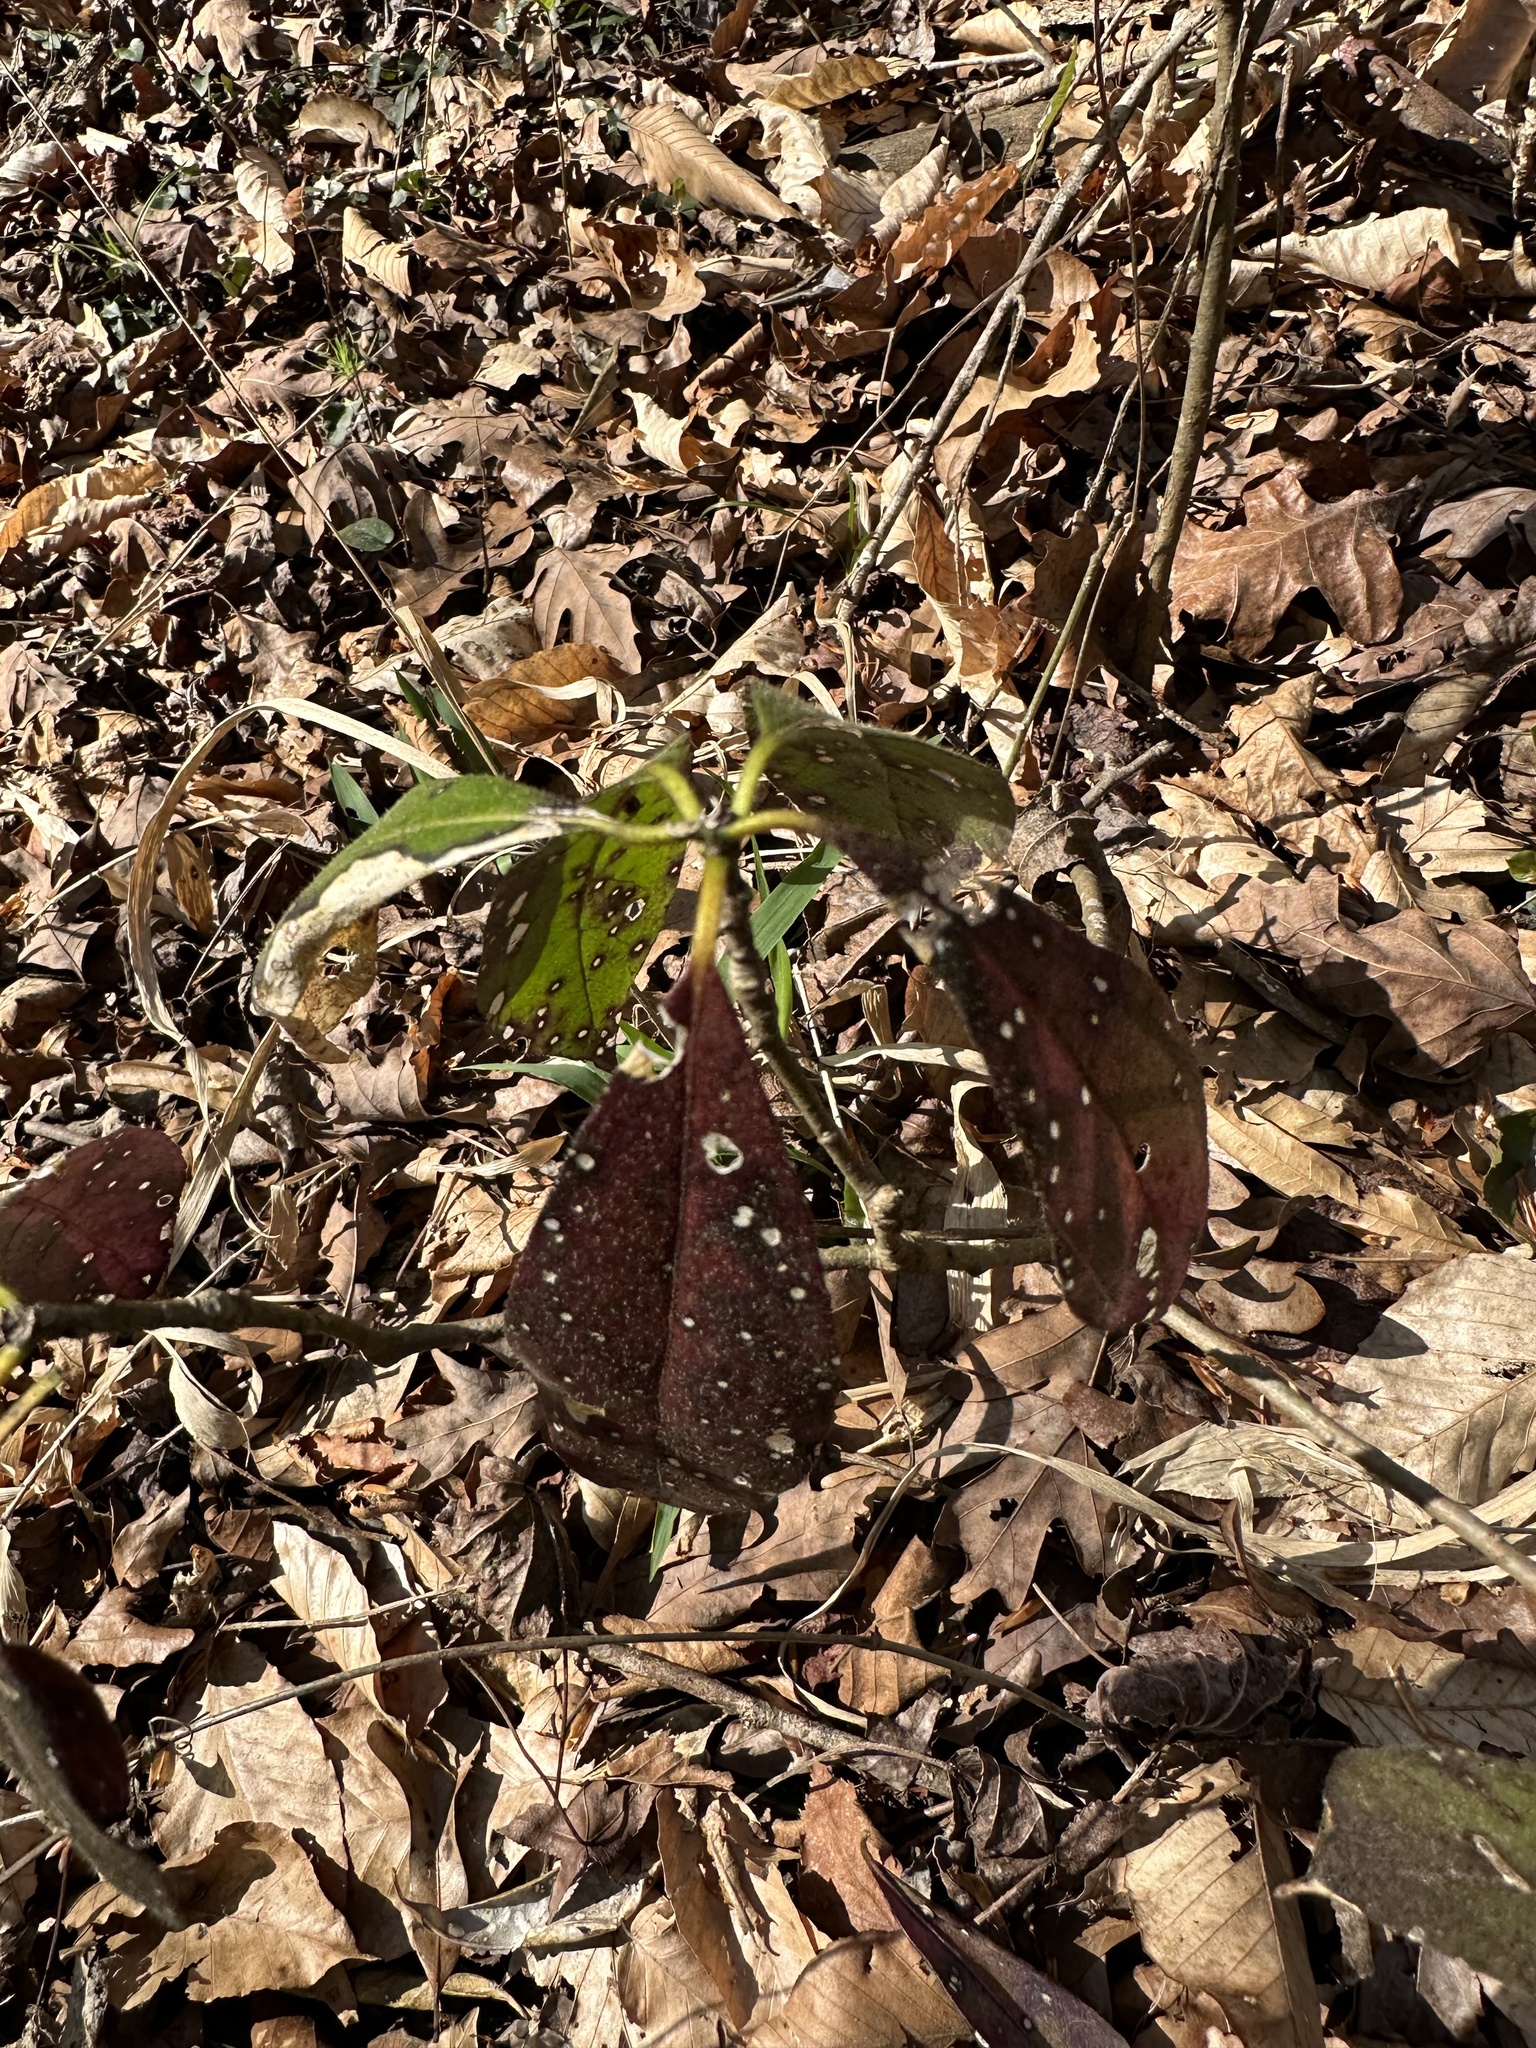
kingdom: Plantae
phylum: Tracheophyta
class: Magnoliopsida
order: Ericales
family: Symplocaceae
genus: Symplocos
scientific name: Symplocos tinctoria
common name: Horse-sugar
